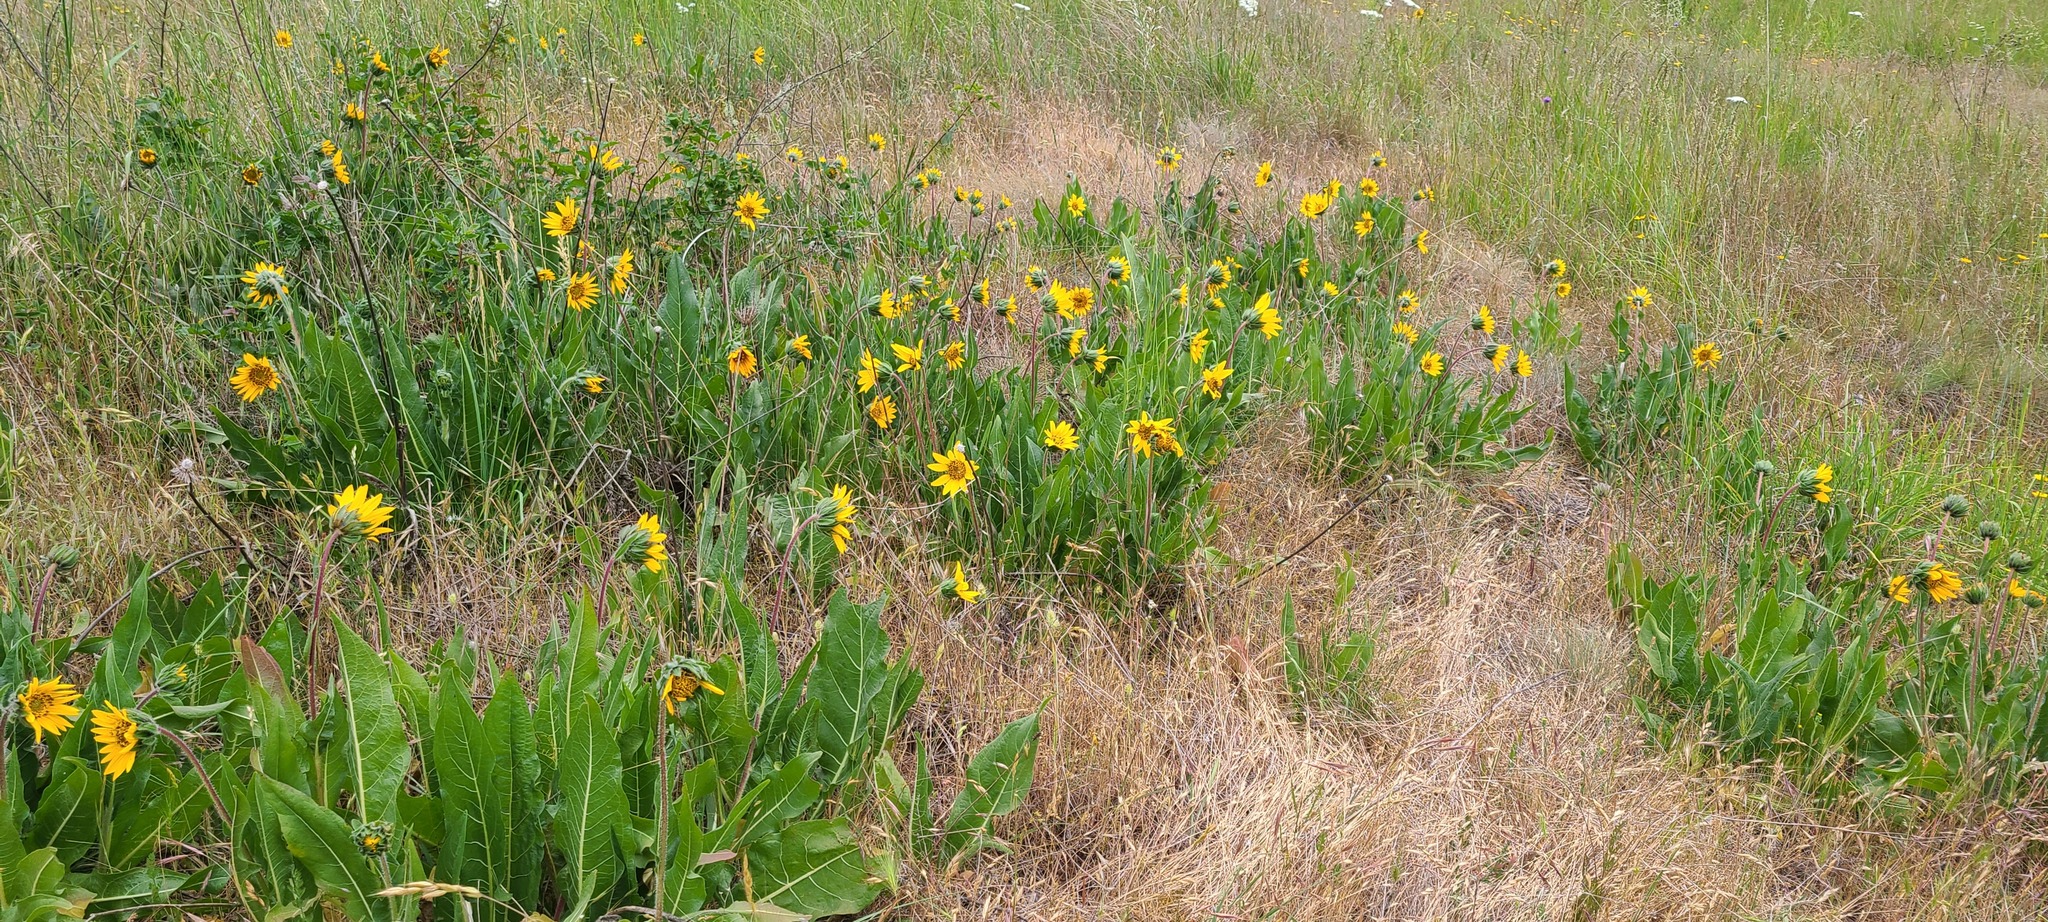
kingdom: Plantae
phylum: Tracheophyta
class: Magnoliopsida
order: Asterales
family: Asteraceae
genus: Wyethia
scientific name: Wyethia angustifolia
